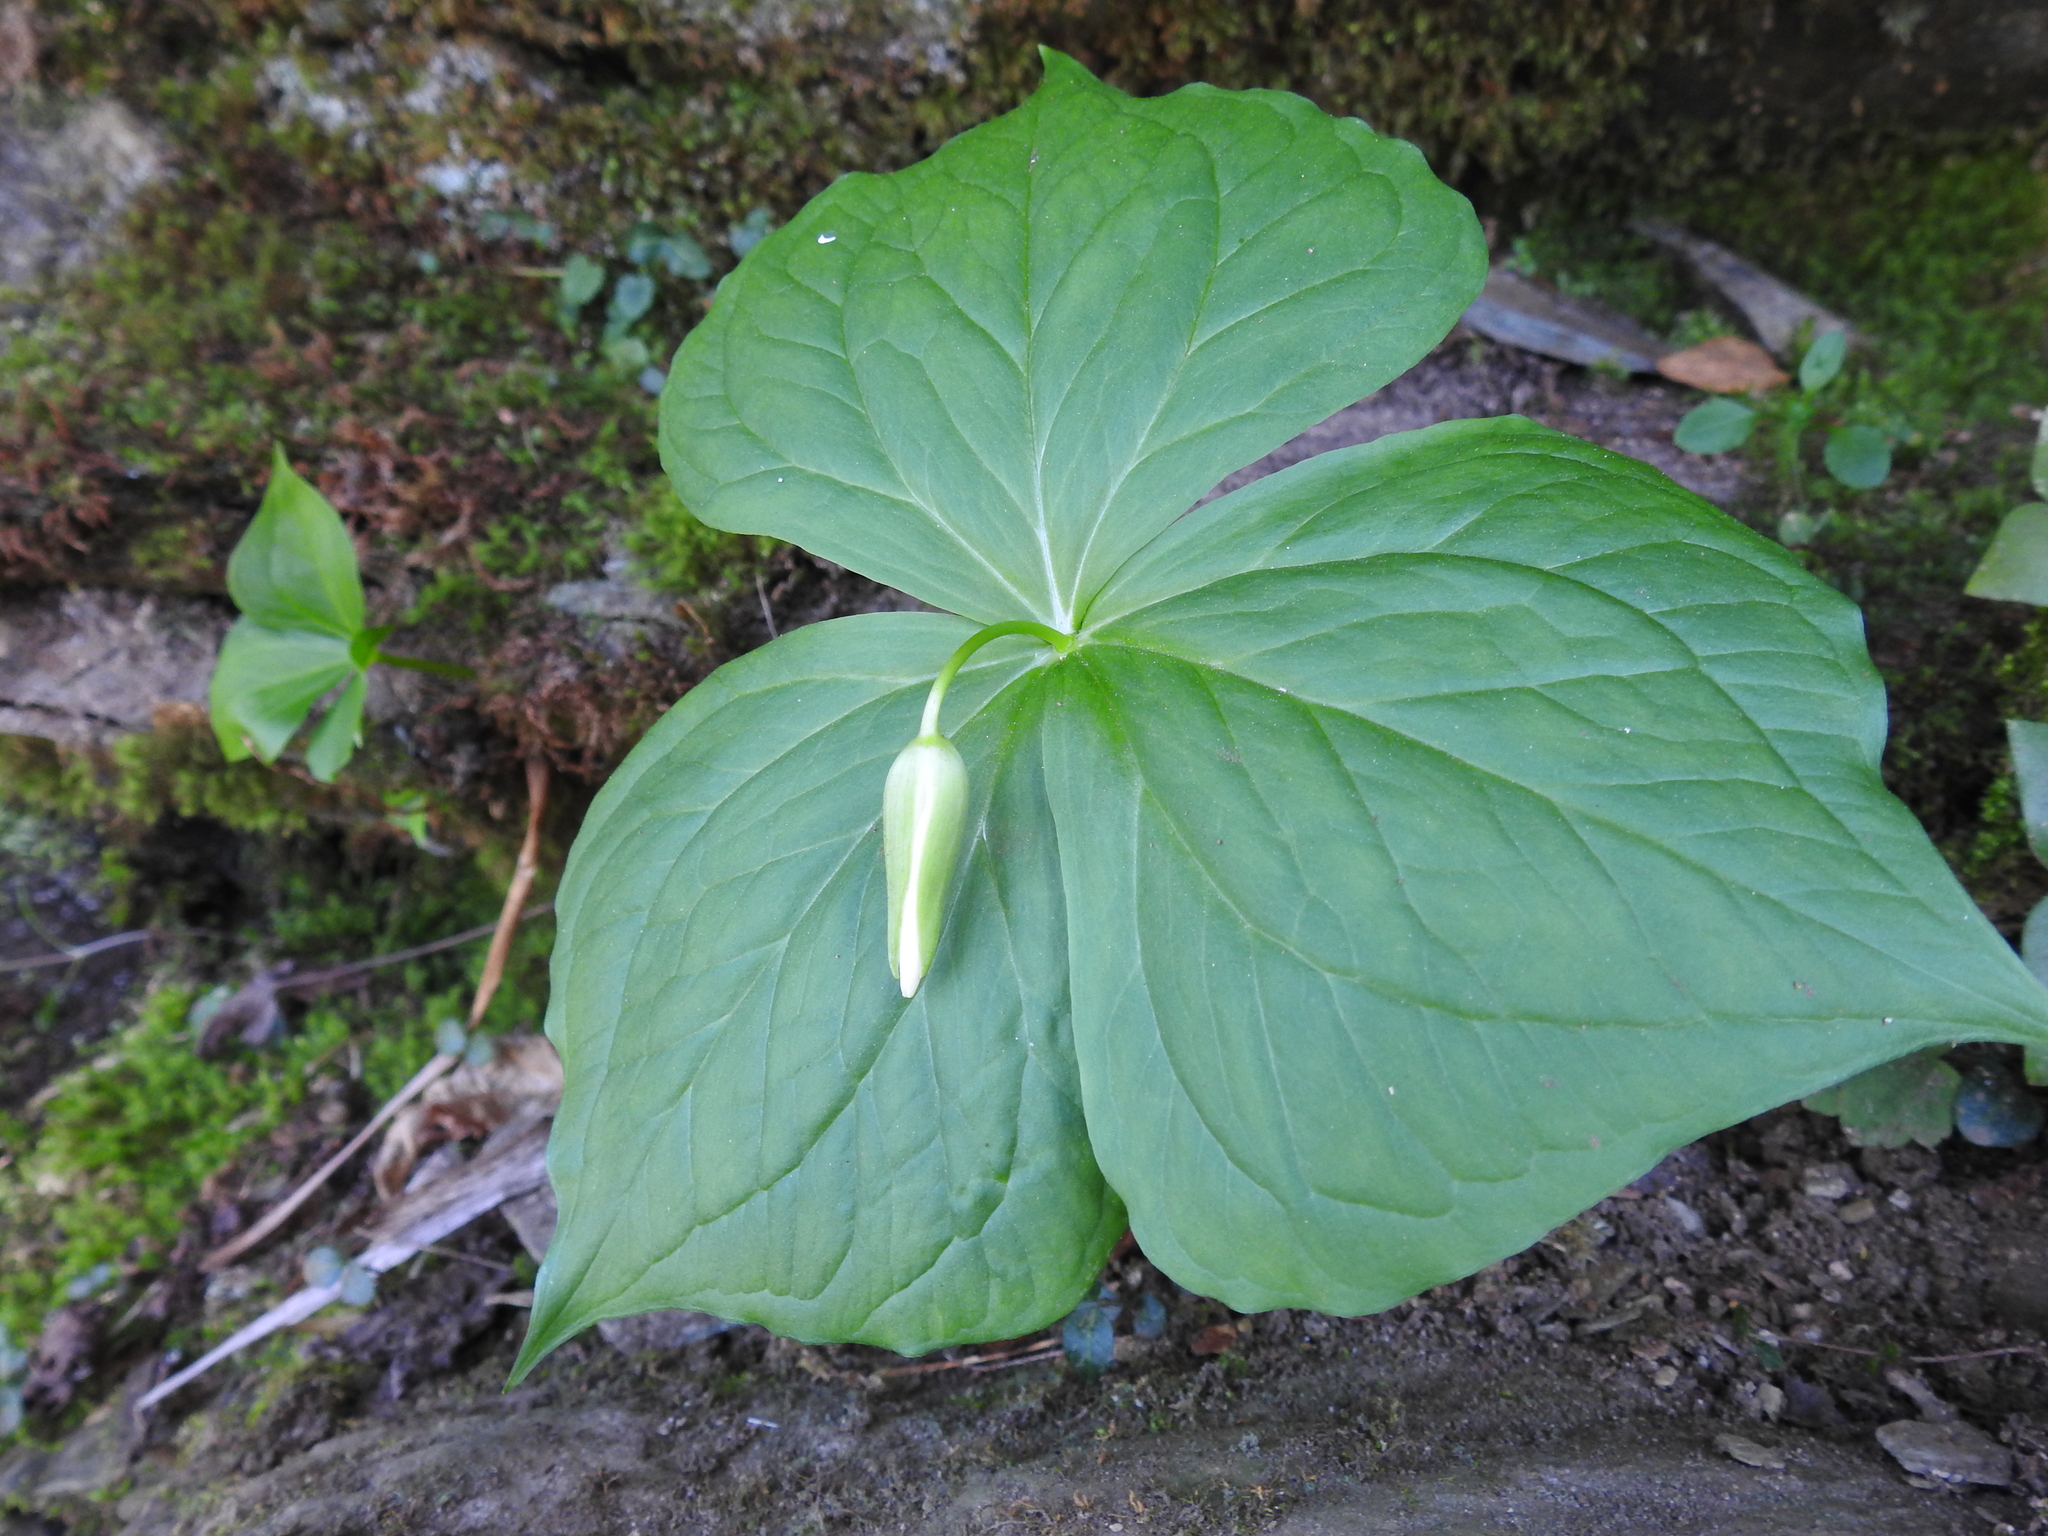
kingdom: Plantae
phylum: Tracheophyta
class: Liliopsida
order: Liliales
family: Melanthiaceae
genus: Trillium
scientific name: Trillium simile
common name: Confusing trillium
